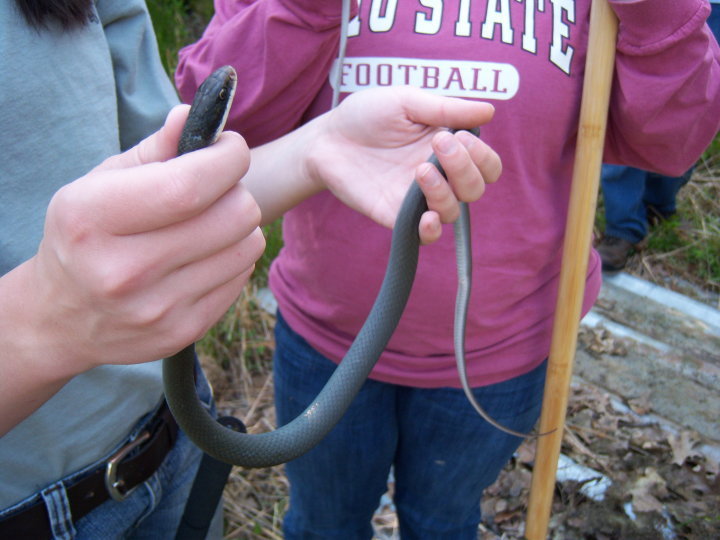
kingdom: Animalia
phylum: Chordata
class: Squamata
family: Colubridae
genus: Coluber
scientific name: Coluber constrictor
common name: Eastern racer
